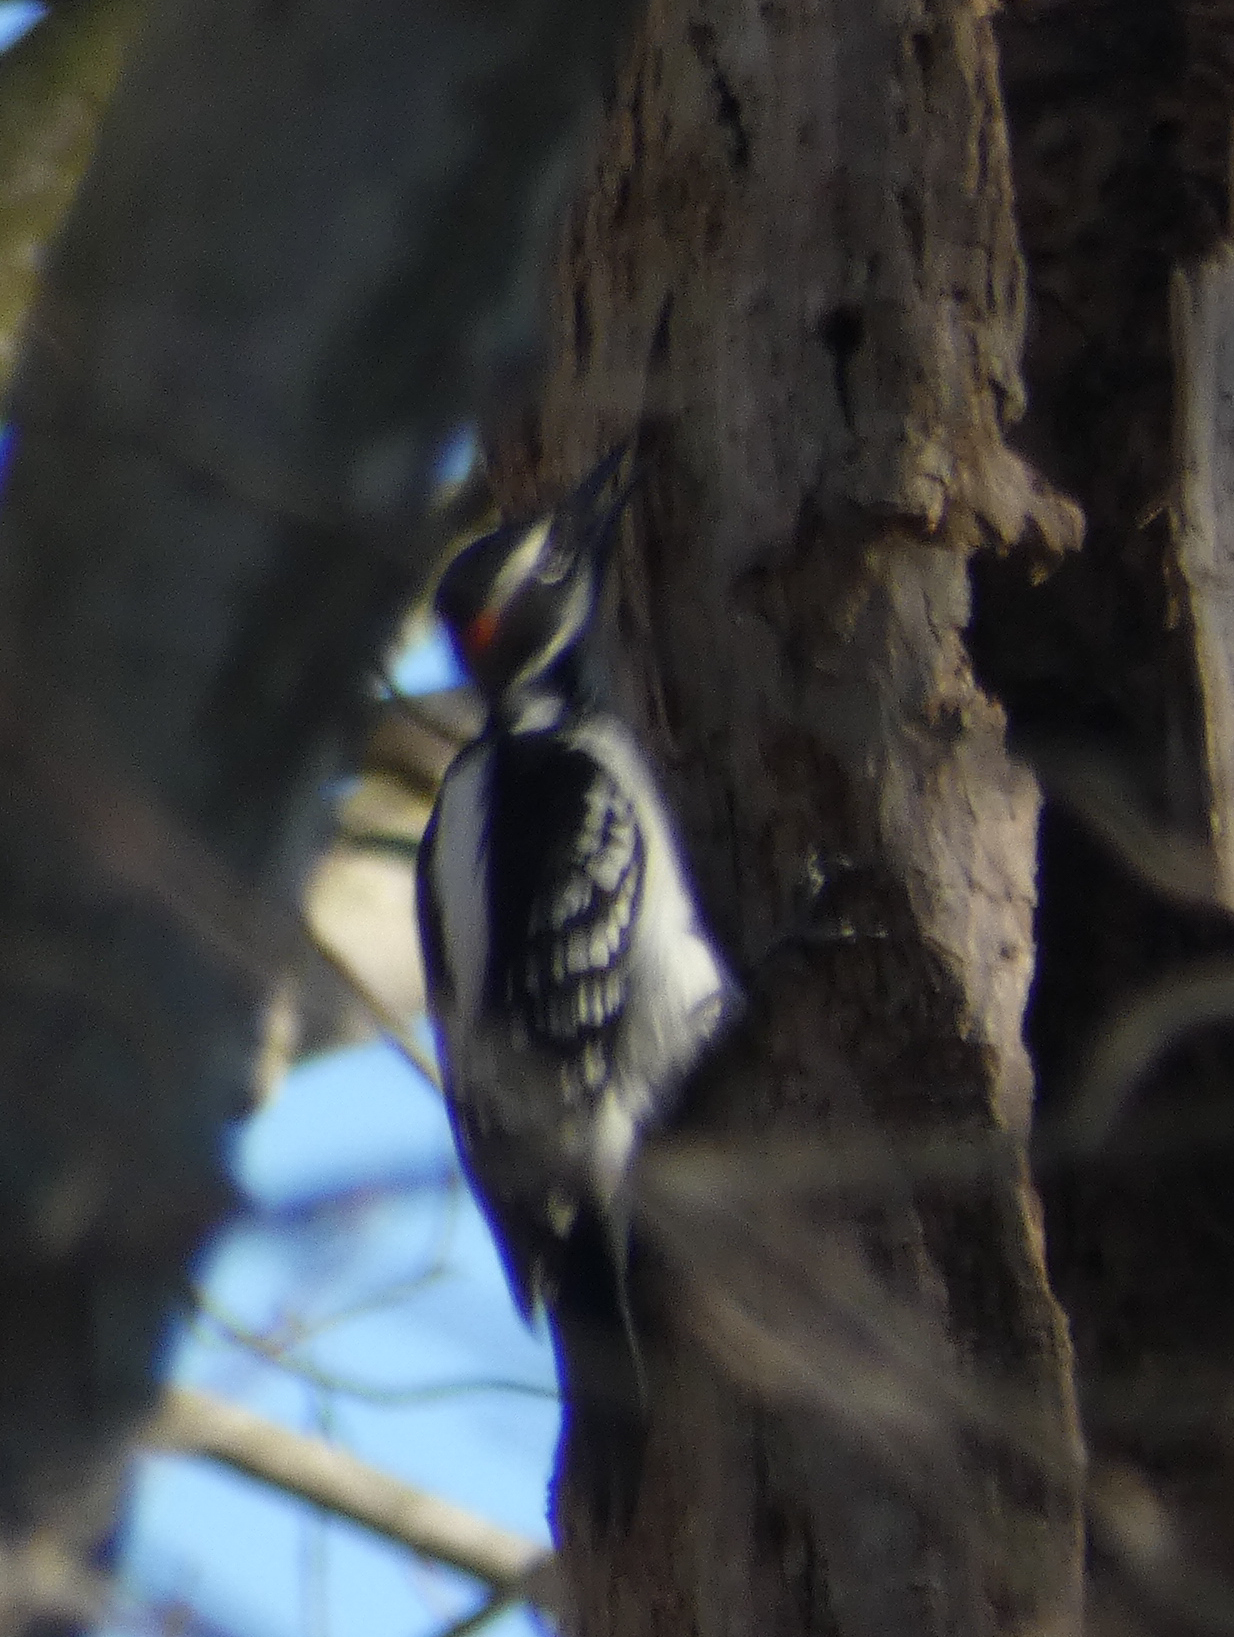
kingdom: Animalia
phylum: Chordata
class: Aves
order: Piciformes
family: Picidae
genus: Leuconotopicus
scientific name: Leuconotopicus villosus
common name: Hairy woodpecker
